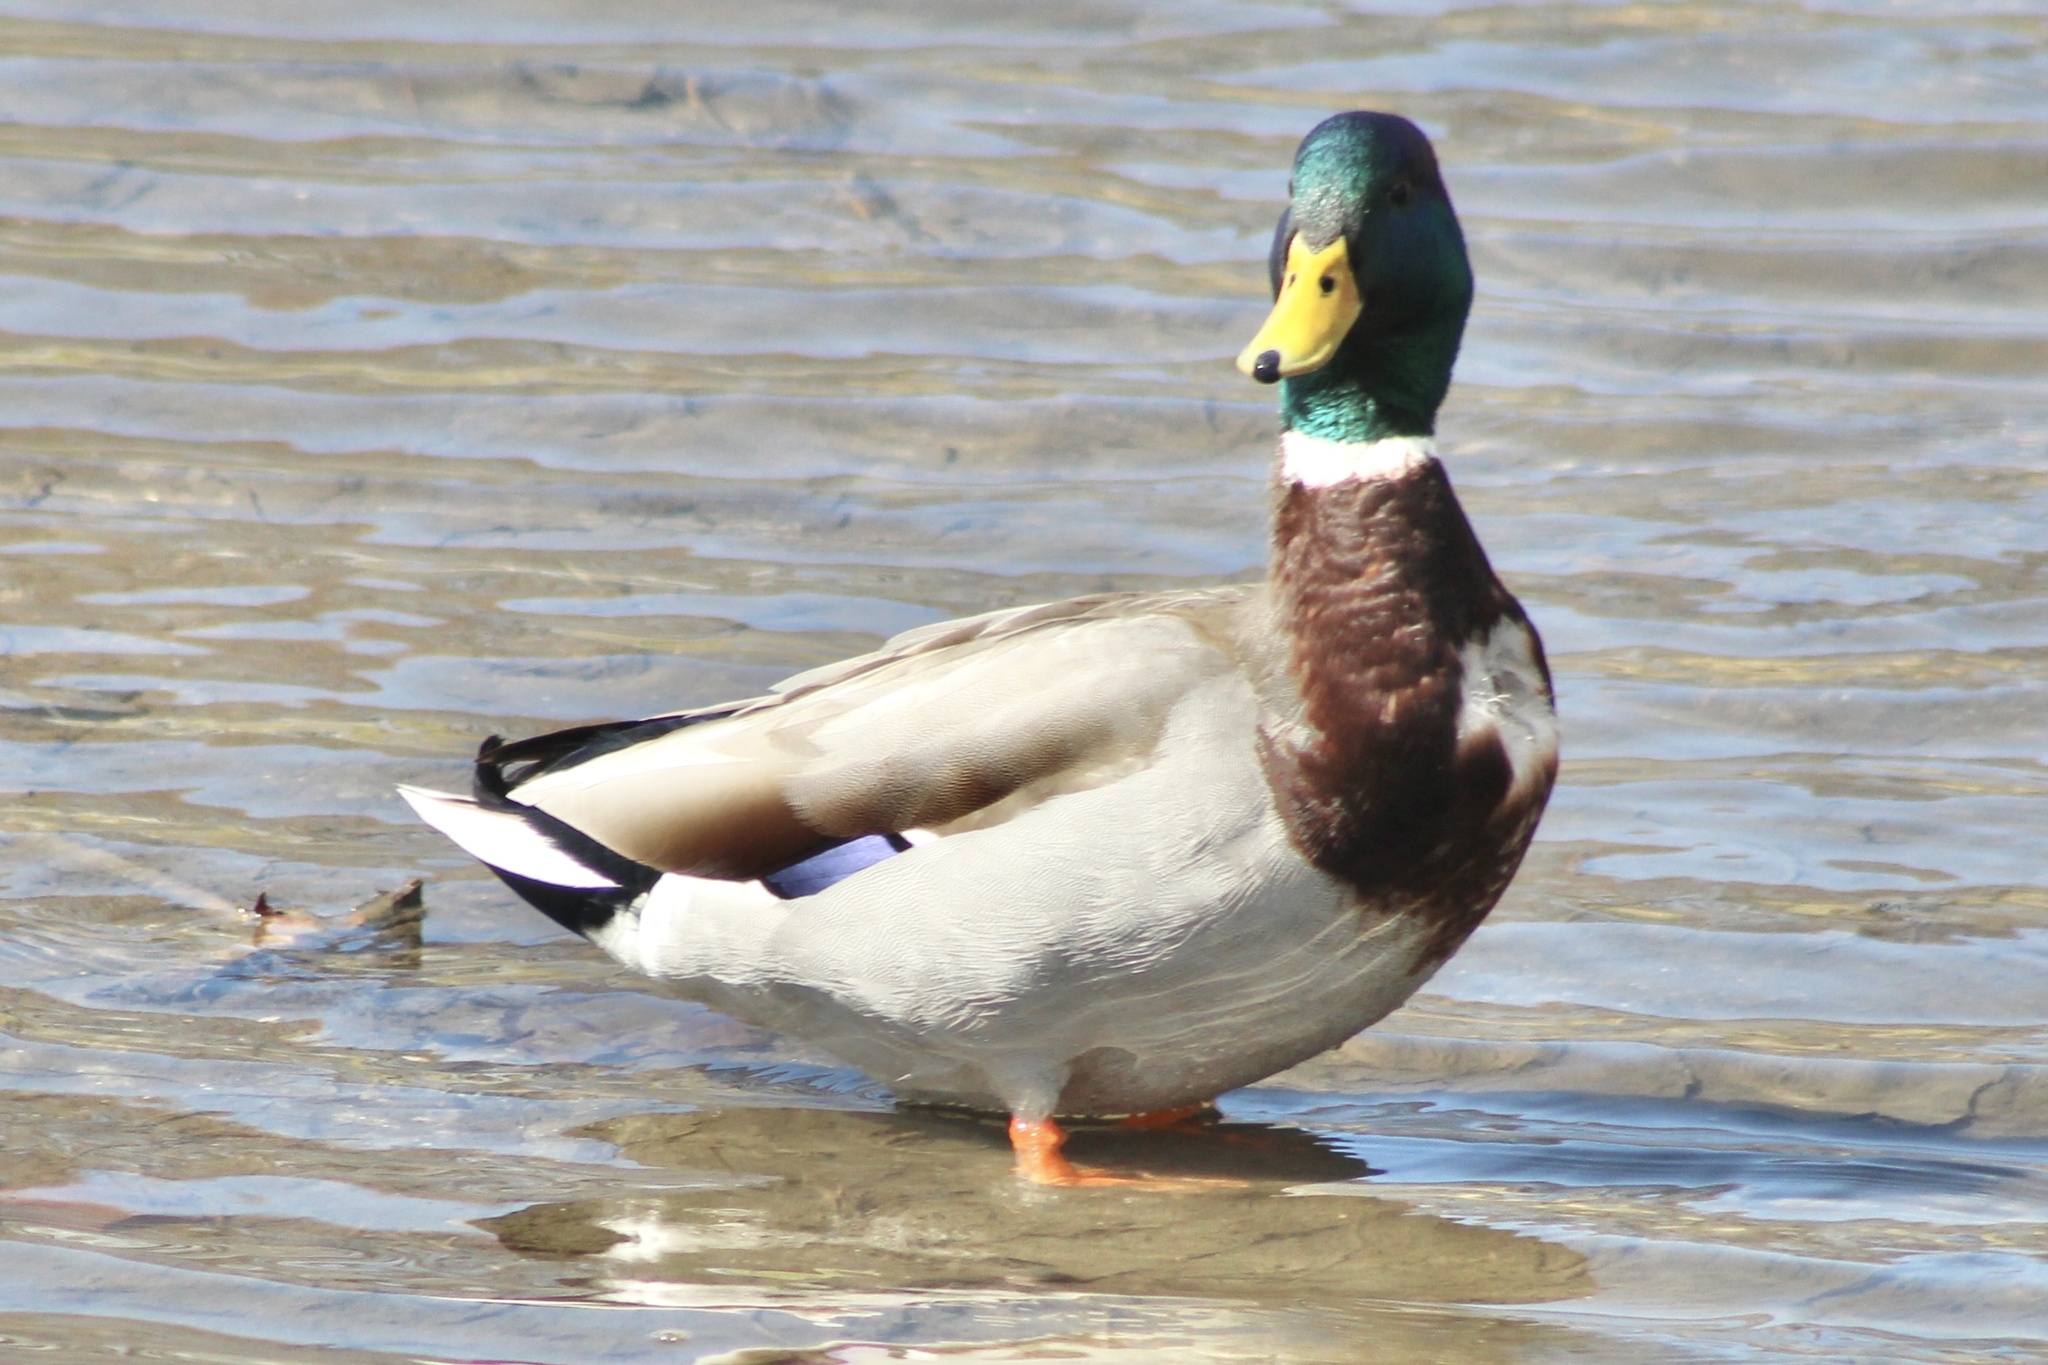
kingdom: Animalia
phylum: Chordata
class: Aves
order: Anseriformes
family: Anatidae
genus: Anas
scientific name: Anas platyrhynchos
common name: Mallard
